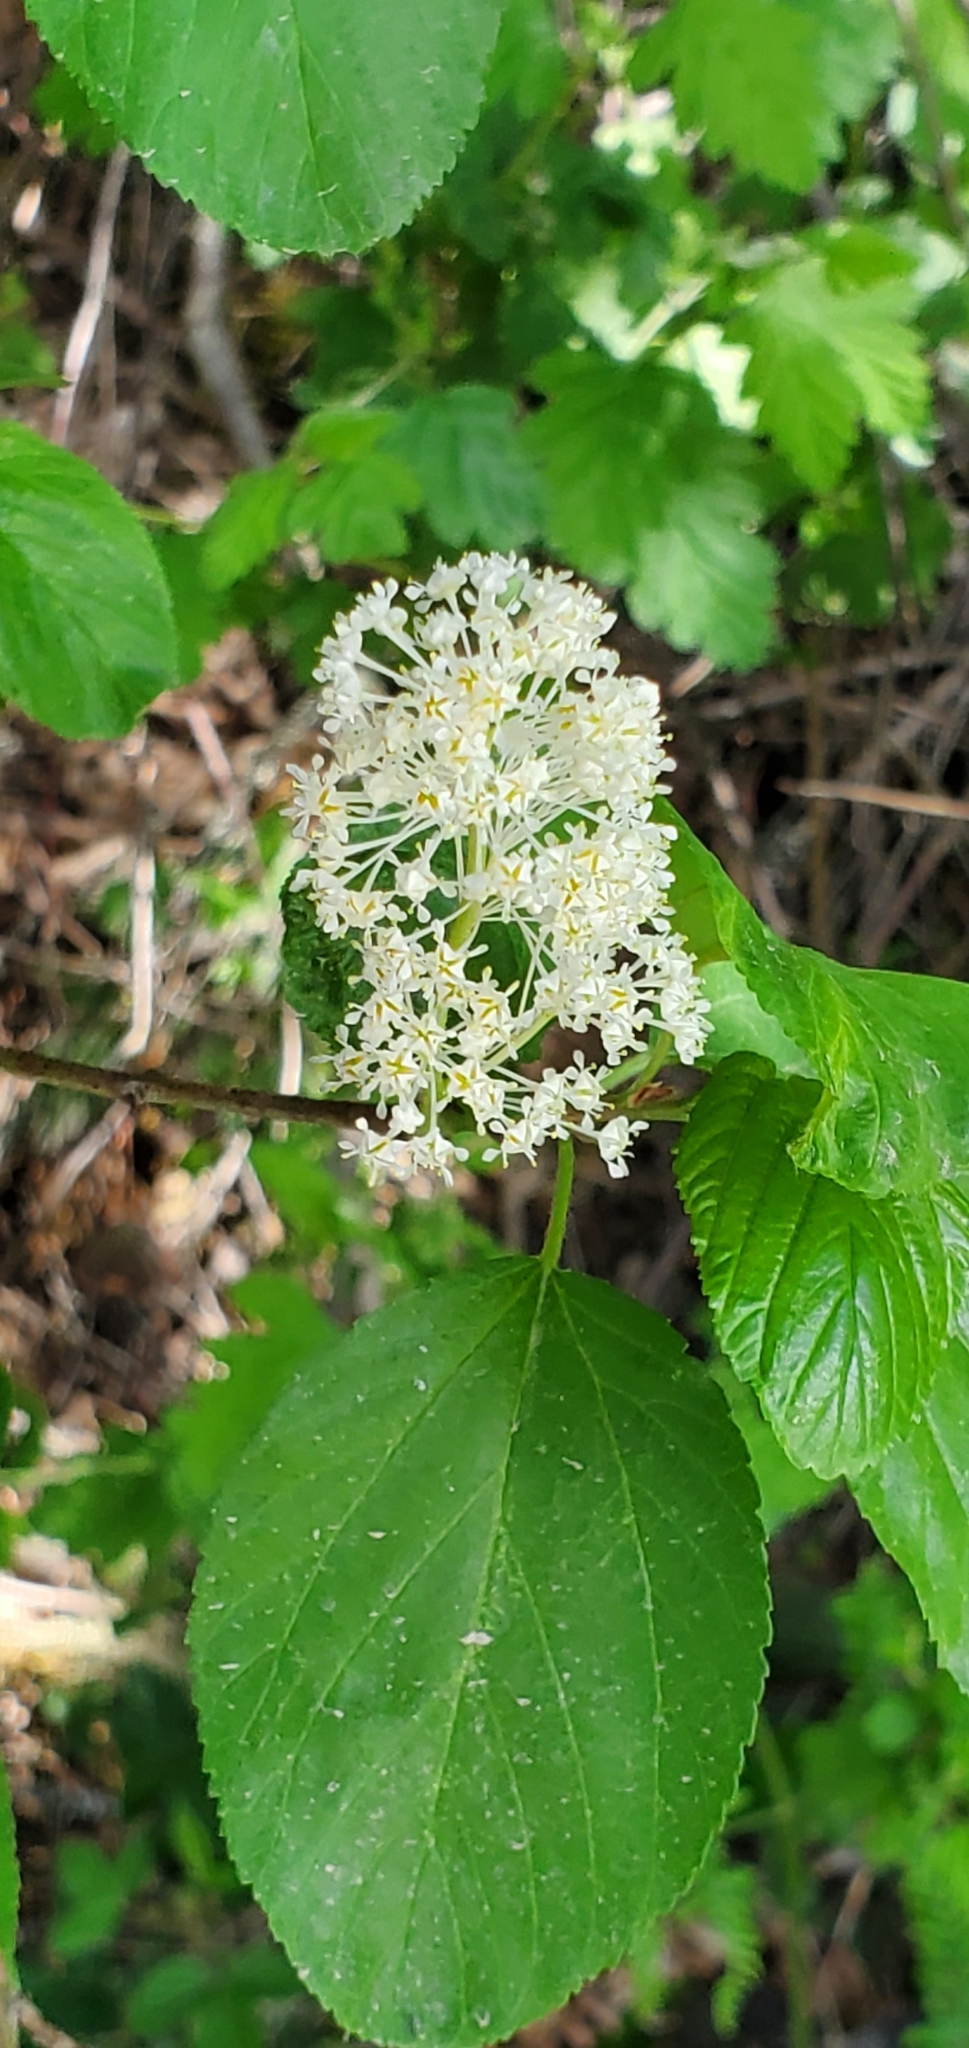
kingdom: Plantae
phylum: Tracheophyta
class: Magnoliopsida
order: Rosales
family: Rhamnaceae
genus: Ceanothus
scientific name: Ceanothus sanguineus
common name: Teatree
